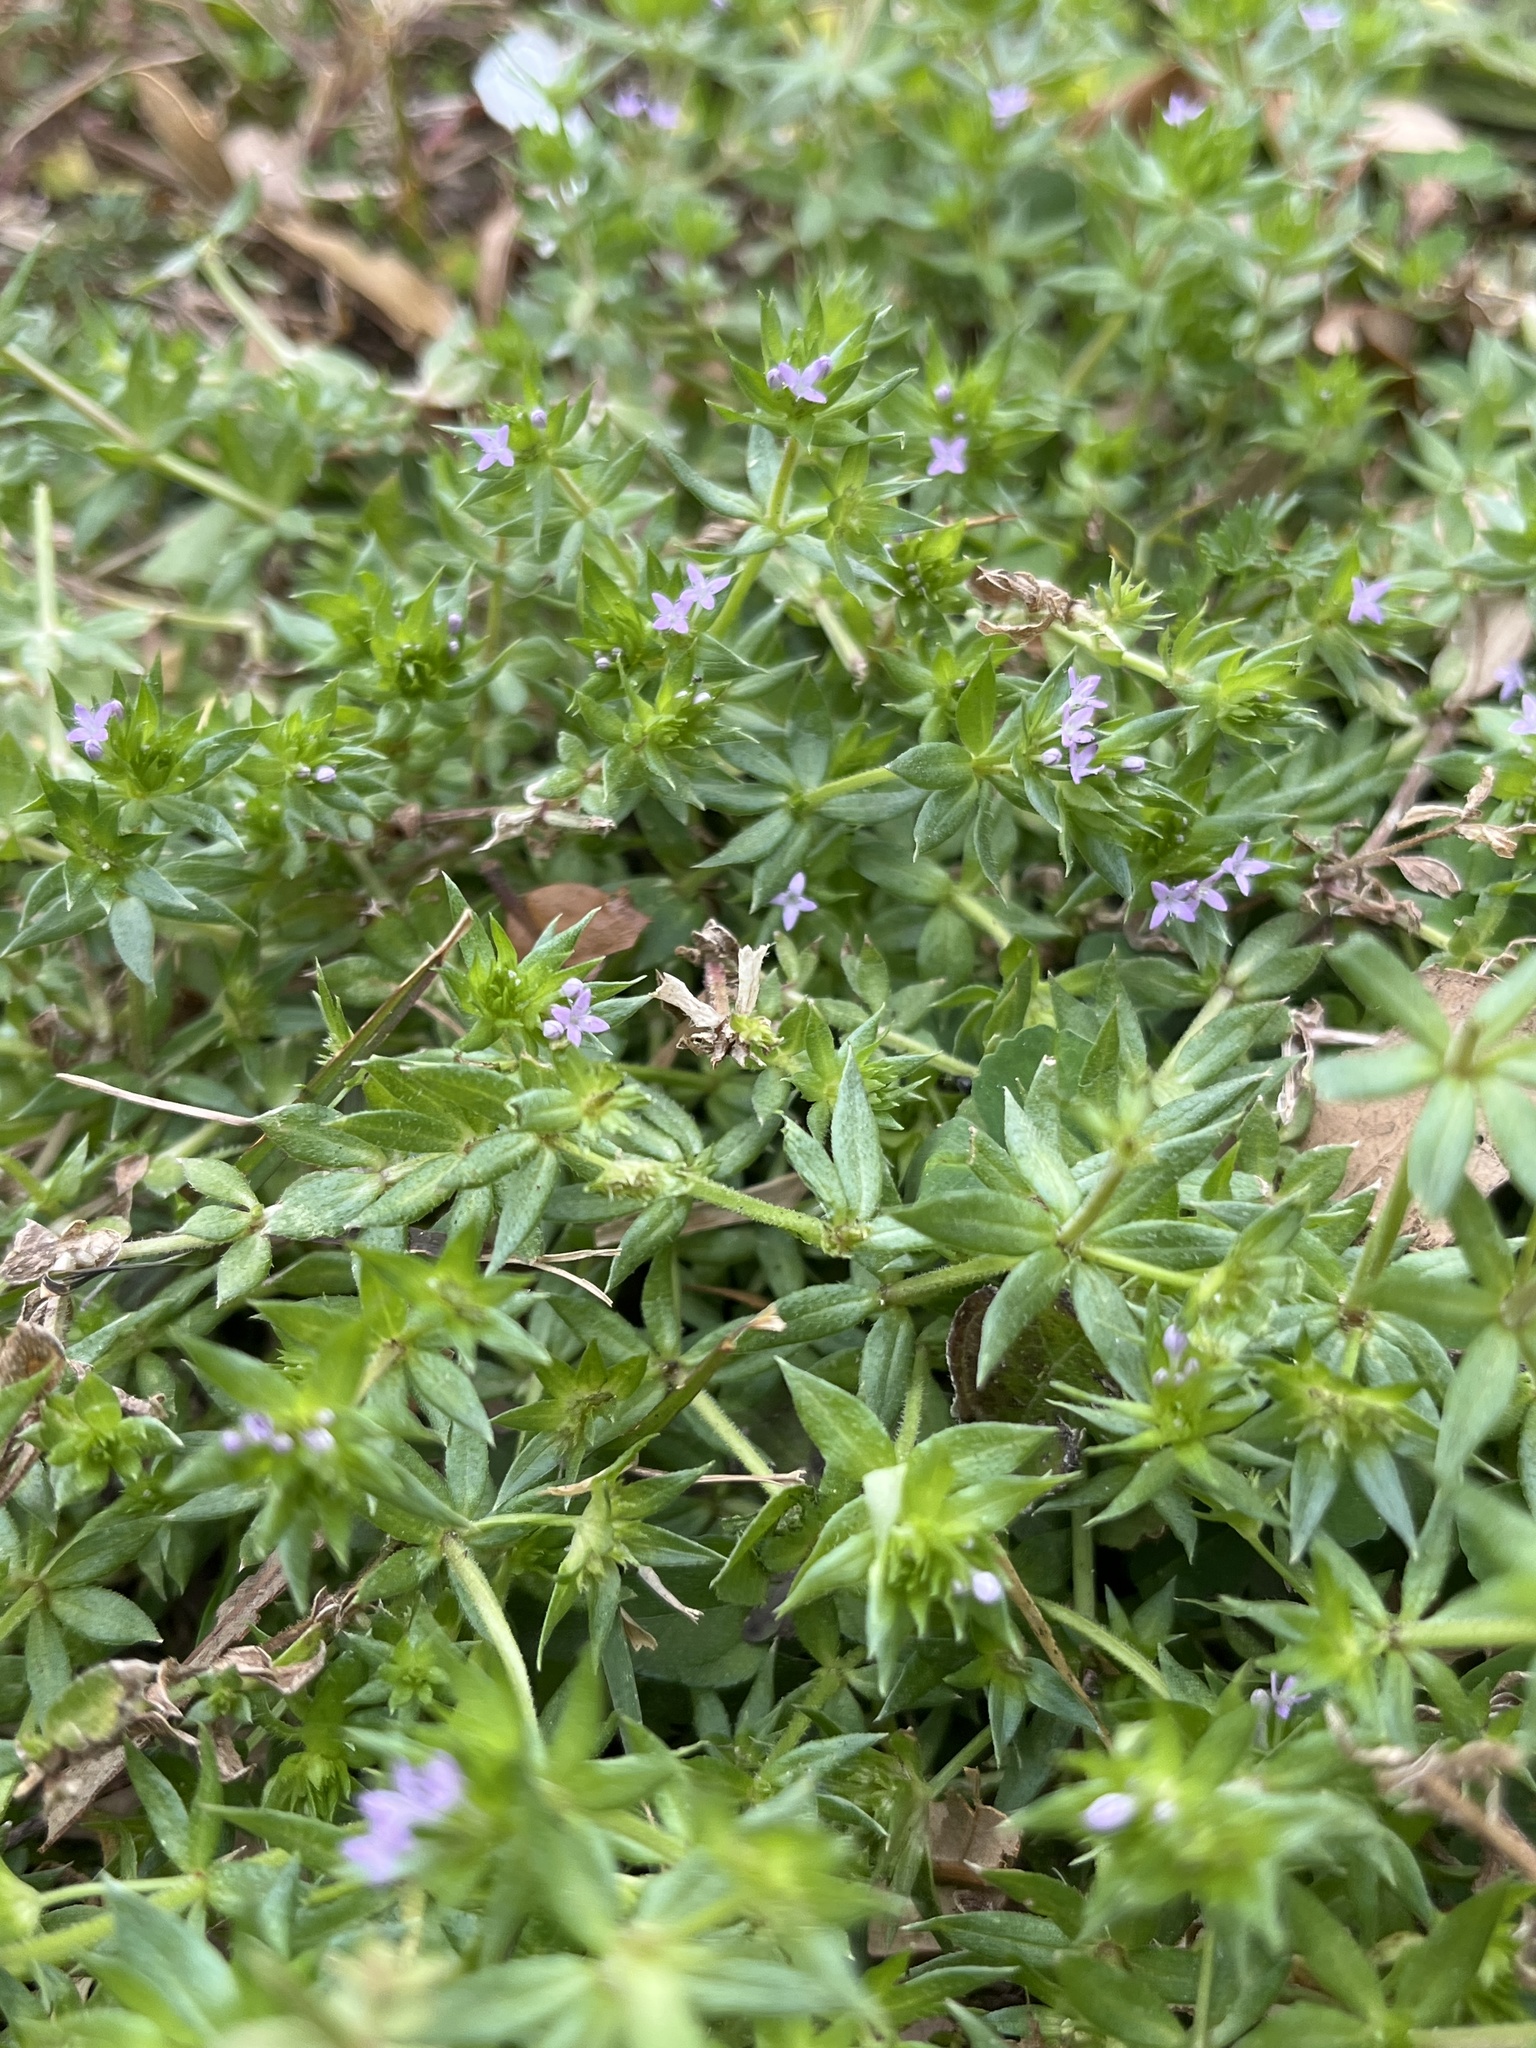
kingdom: Plantae
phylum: Tracheophyta
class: Magnoliopsida
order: Gentianales
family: Rubiaceae
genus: Sherardia
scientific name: Sherardia arvensis
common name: Field madder
